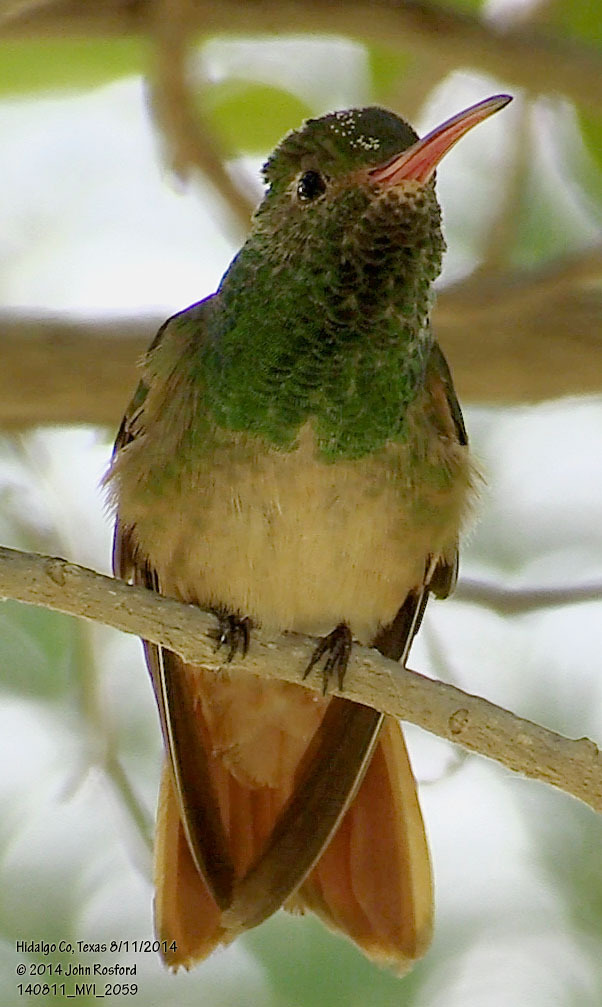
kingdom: Animalia
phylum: Chordata
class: Aves
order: Apodiformes
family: Trochilidae
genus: Amazilia
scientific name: Amazilia yucatanensis
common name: Buff-bellied hummingbird
